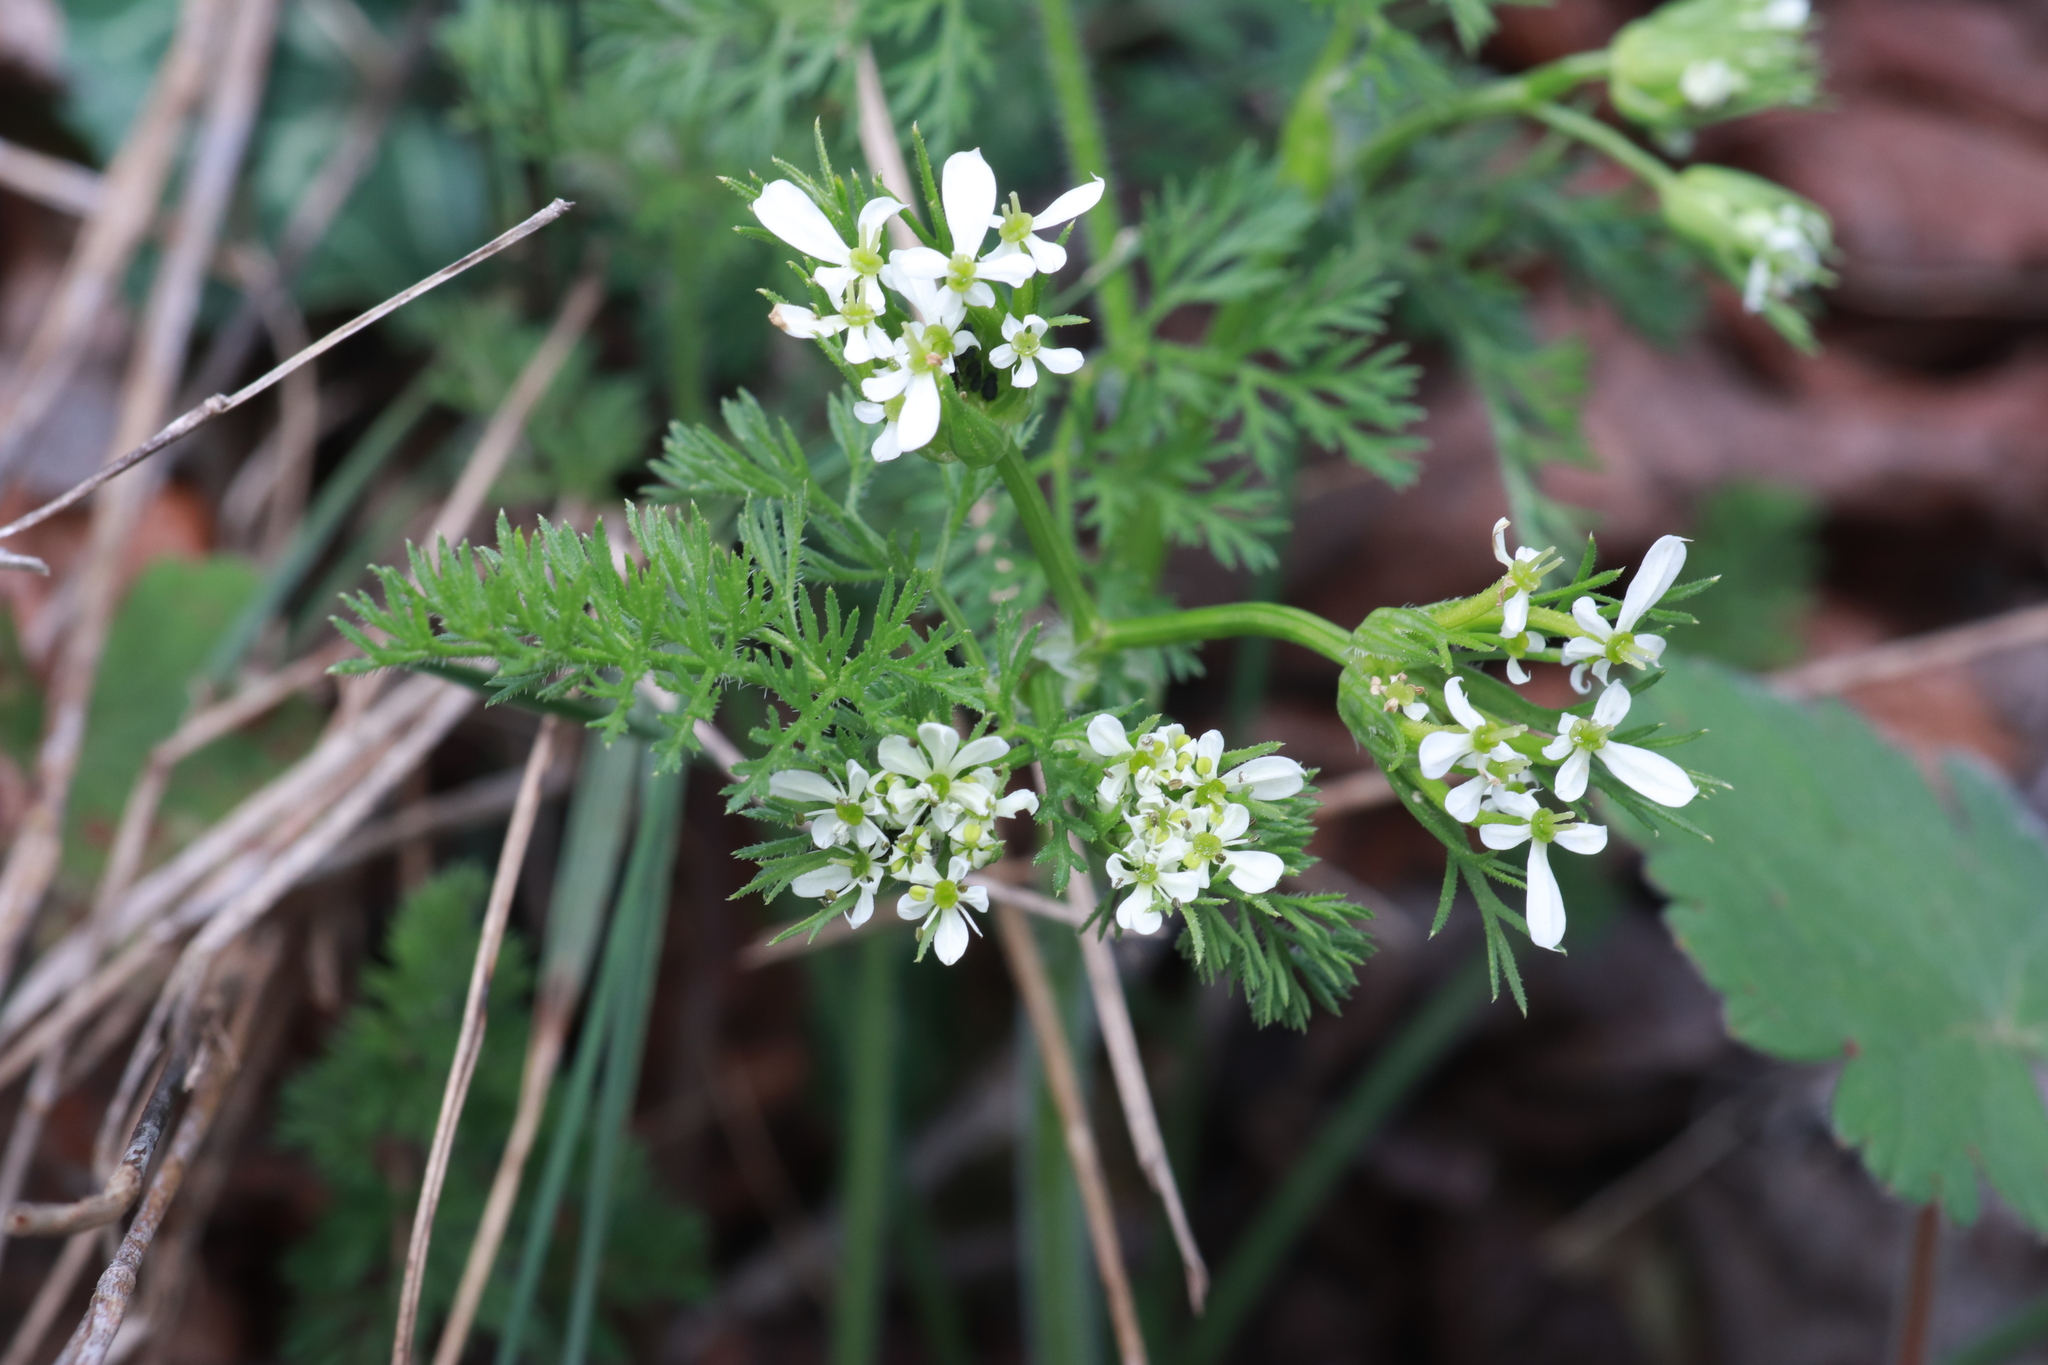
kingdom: Plantae
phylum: Tracheophyta
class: Magnoliopsida
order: Apiales
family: Apiaceae
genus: Scandix
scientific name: Scandix pecten-veneris
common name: Shepherd's-needle
